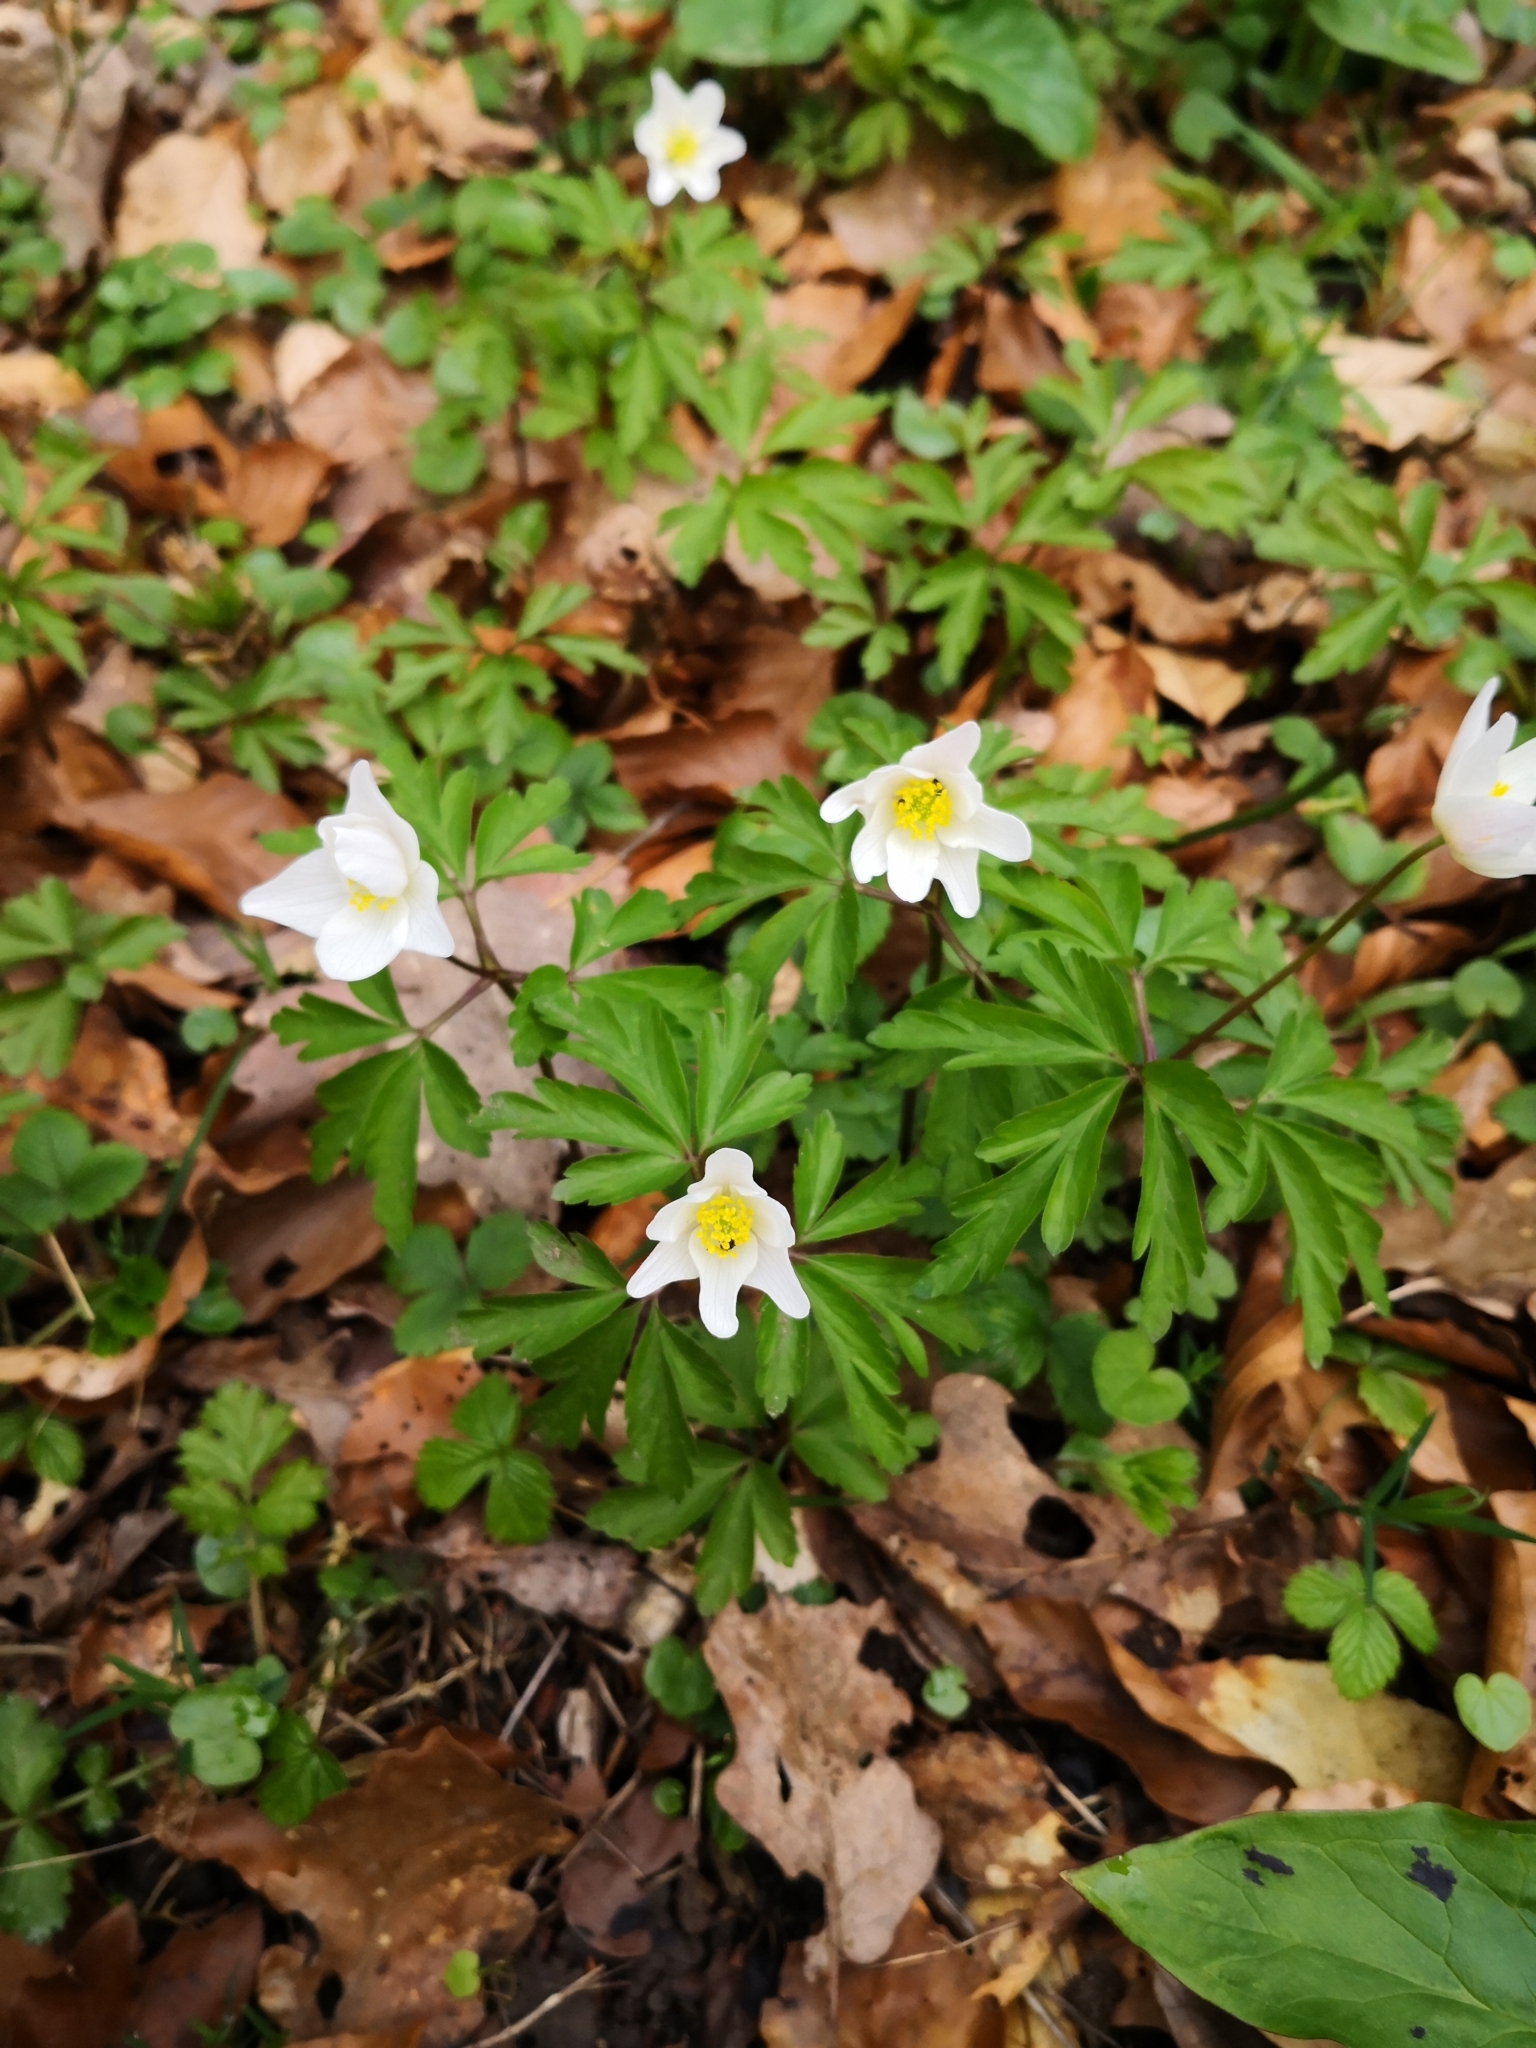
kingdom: Plantae
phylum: Tracheophyta
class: Magnoliopsida
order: Ranunculales
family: Ranunculaceae
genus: Anemone
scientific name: Anemone nemorosa
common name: Wood anemone
